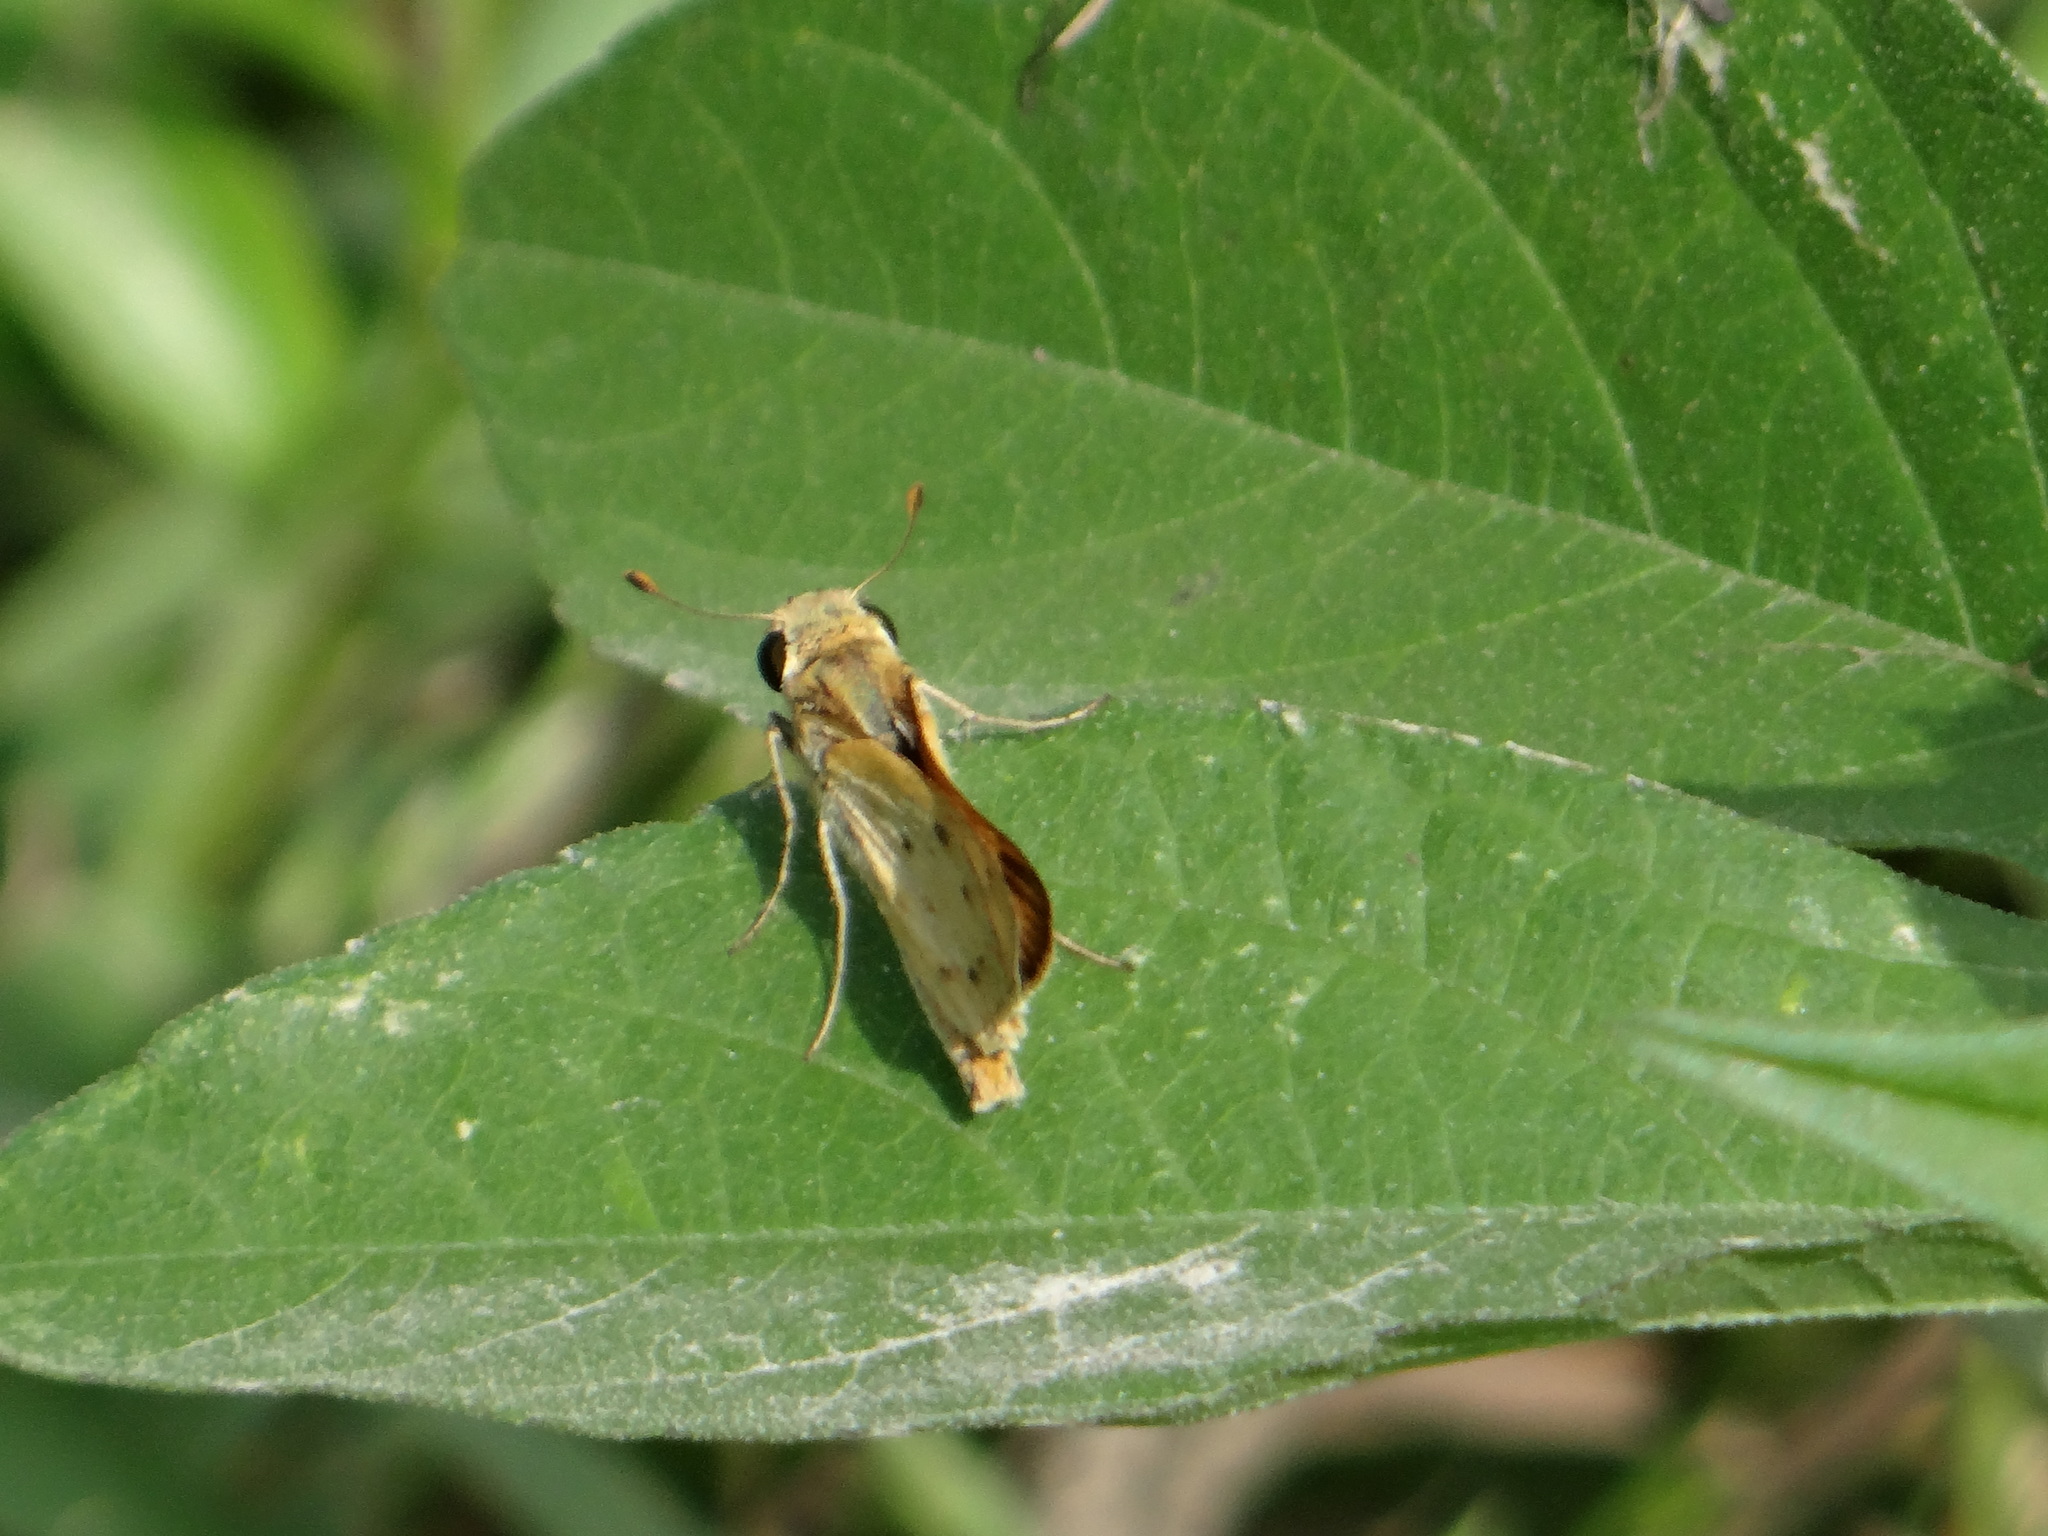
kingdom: Animalia
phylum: Arthropoda
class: Insecta
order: Lepidoptera
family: Hesperiidae
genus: Hylephila
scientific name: Hylephila phyleus
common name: Fiery skipper
